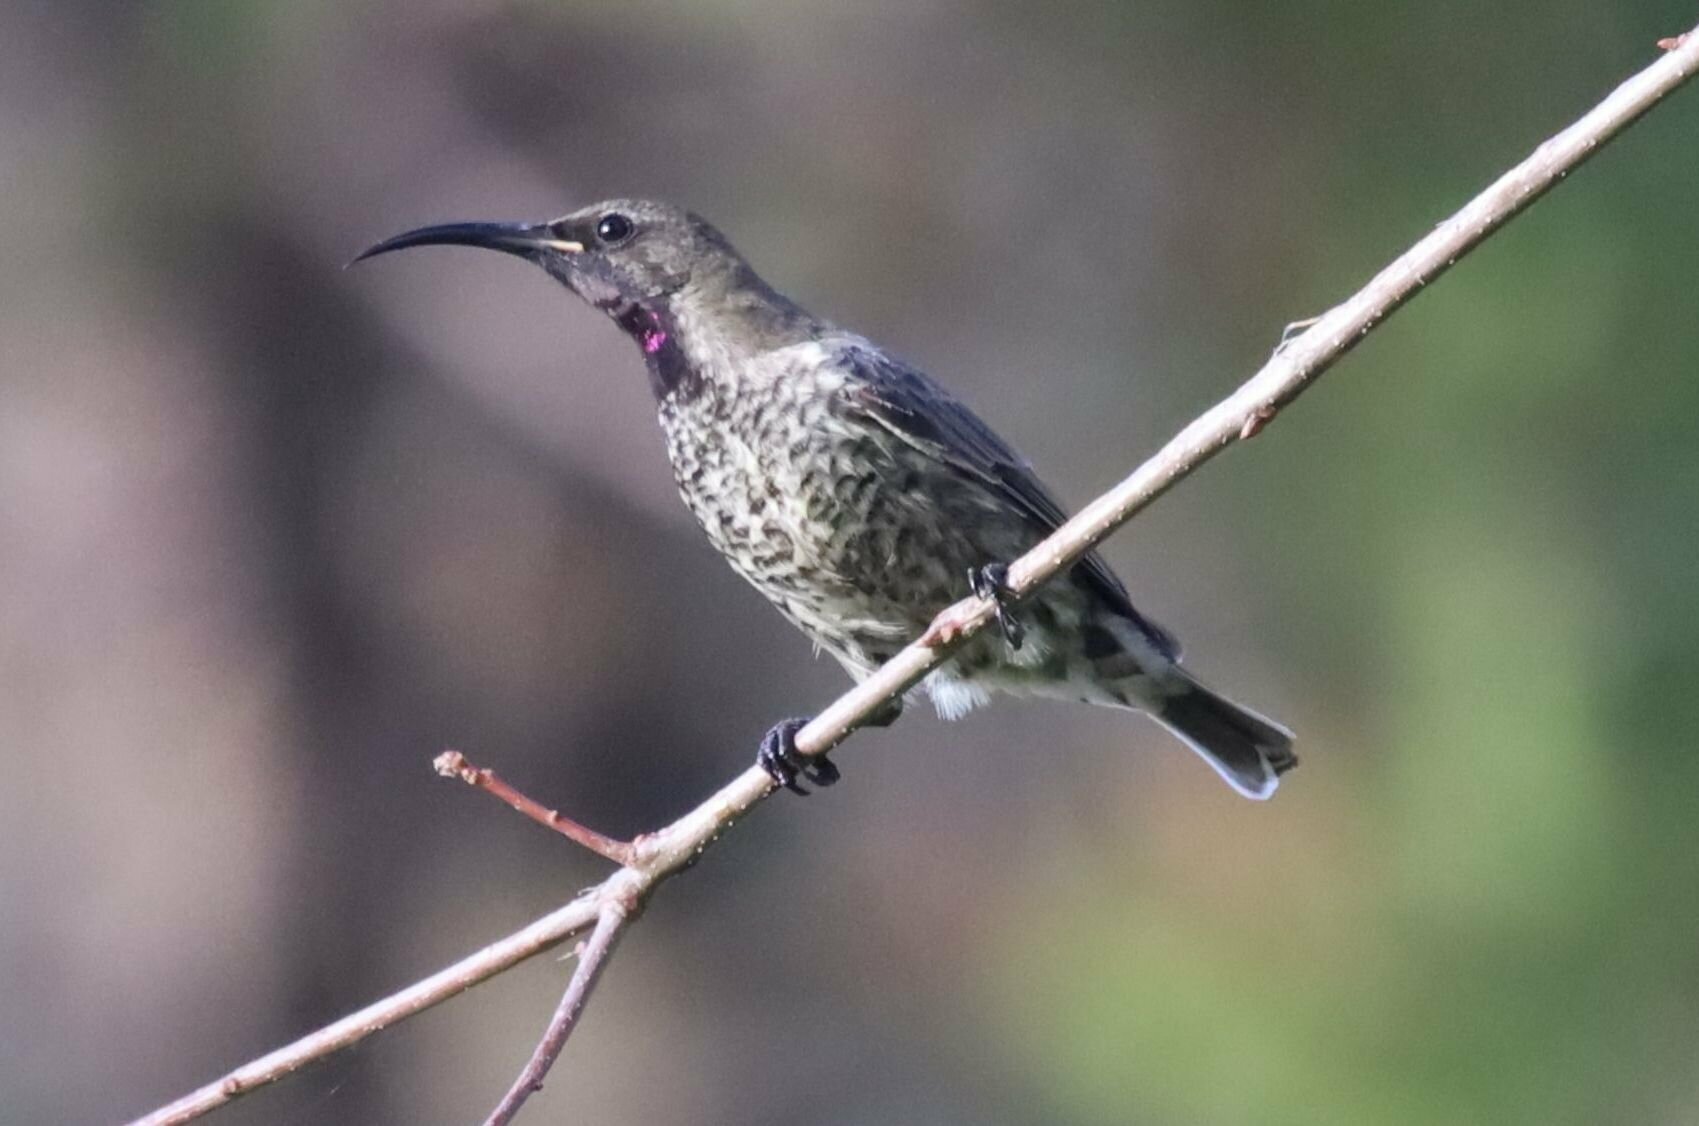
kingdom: Animalia
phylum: Chordata
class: Aves
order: Passeriformes
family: Nectariniidae
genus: Chalcomitra
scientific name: Chalcomitra amethystina
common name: Amethyst sunbird
